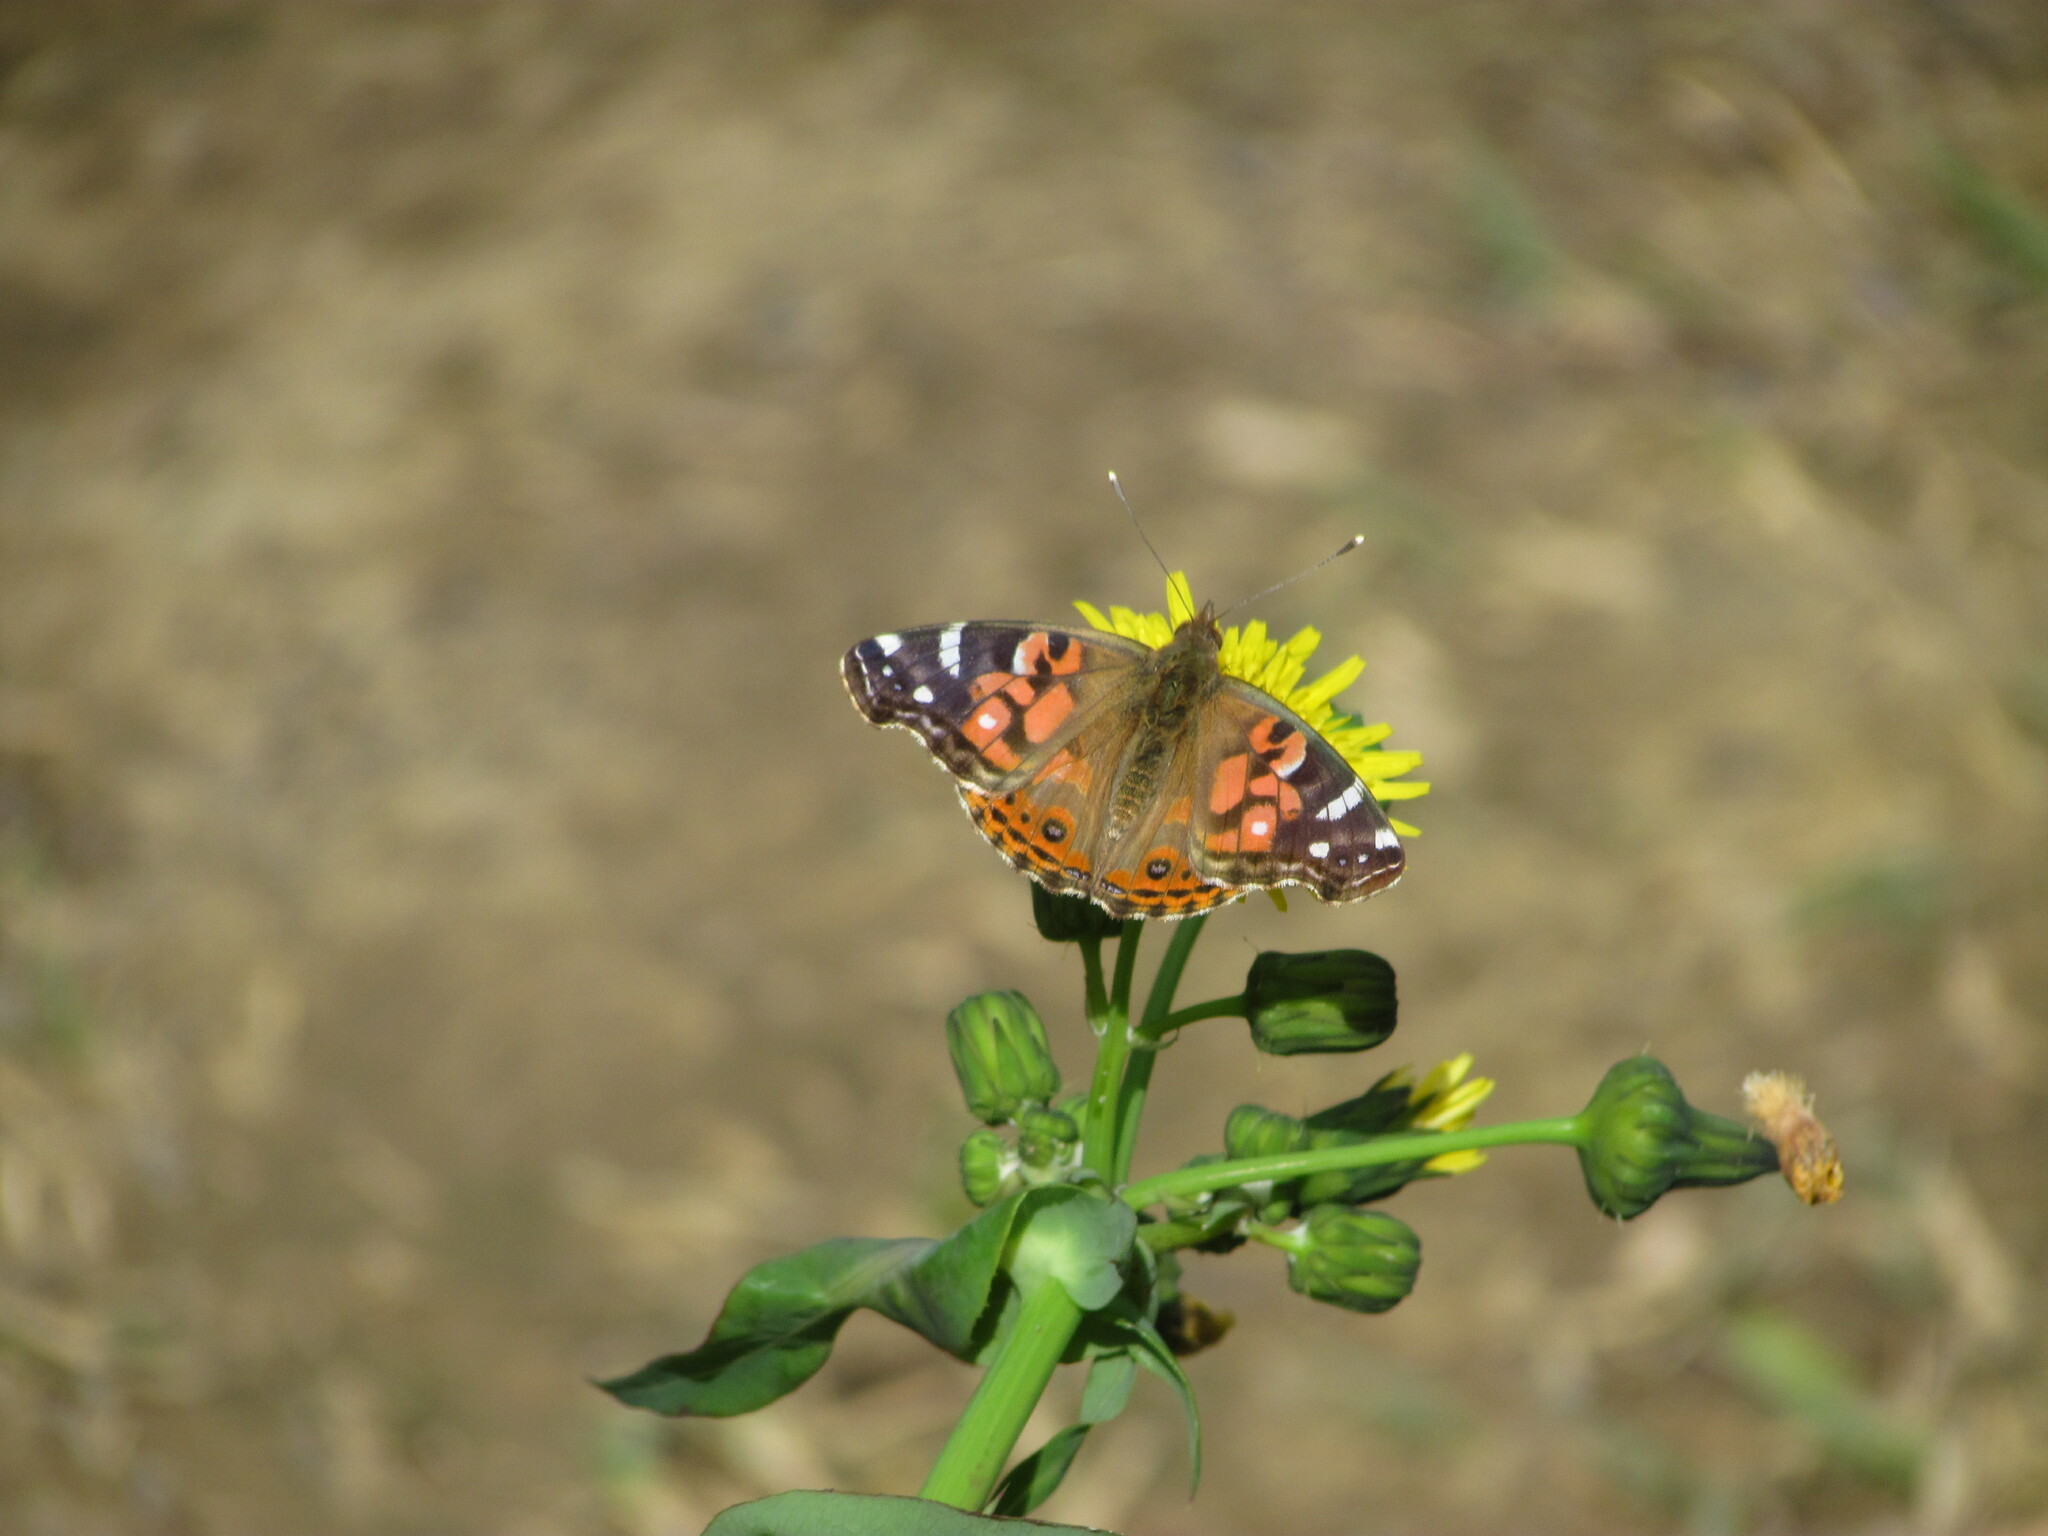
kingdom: Animalia
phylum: Arthropoda
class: Insecta
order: Lepidoptera
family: Nymphalidae
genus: Vanessa
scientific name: Vanessa braziliensis
